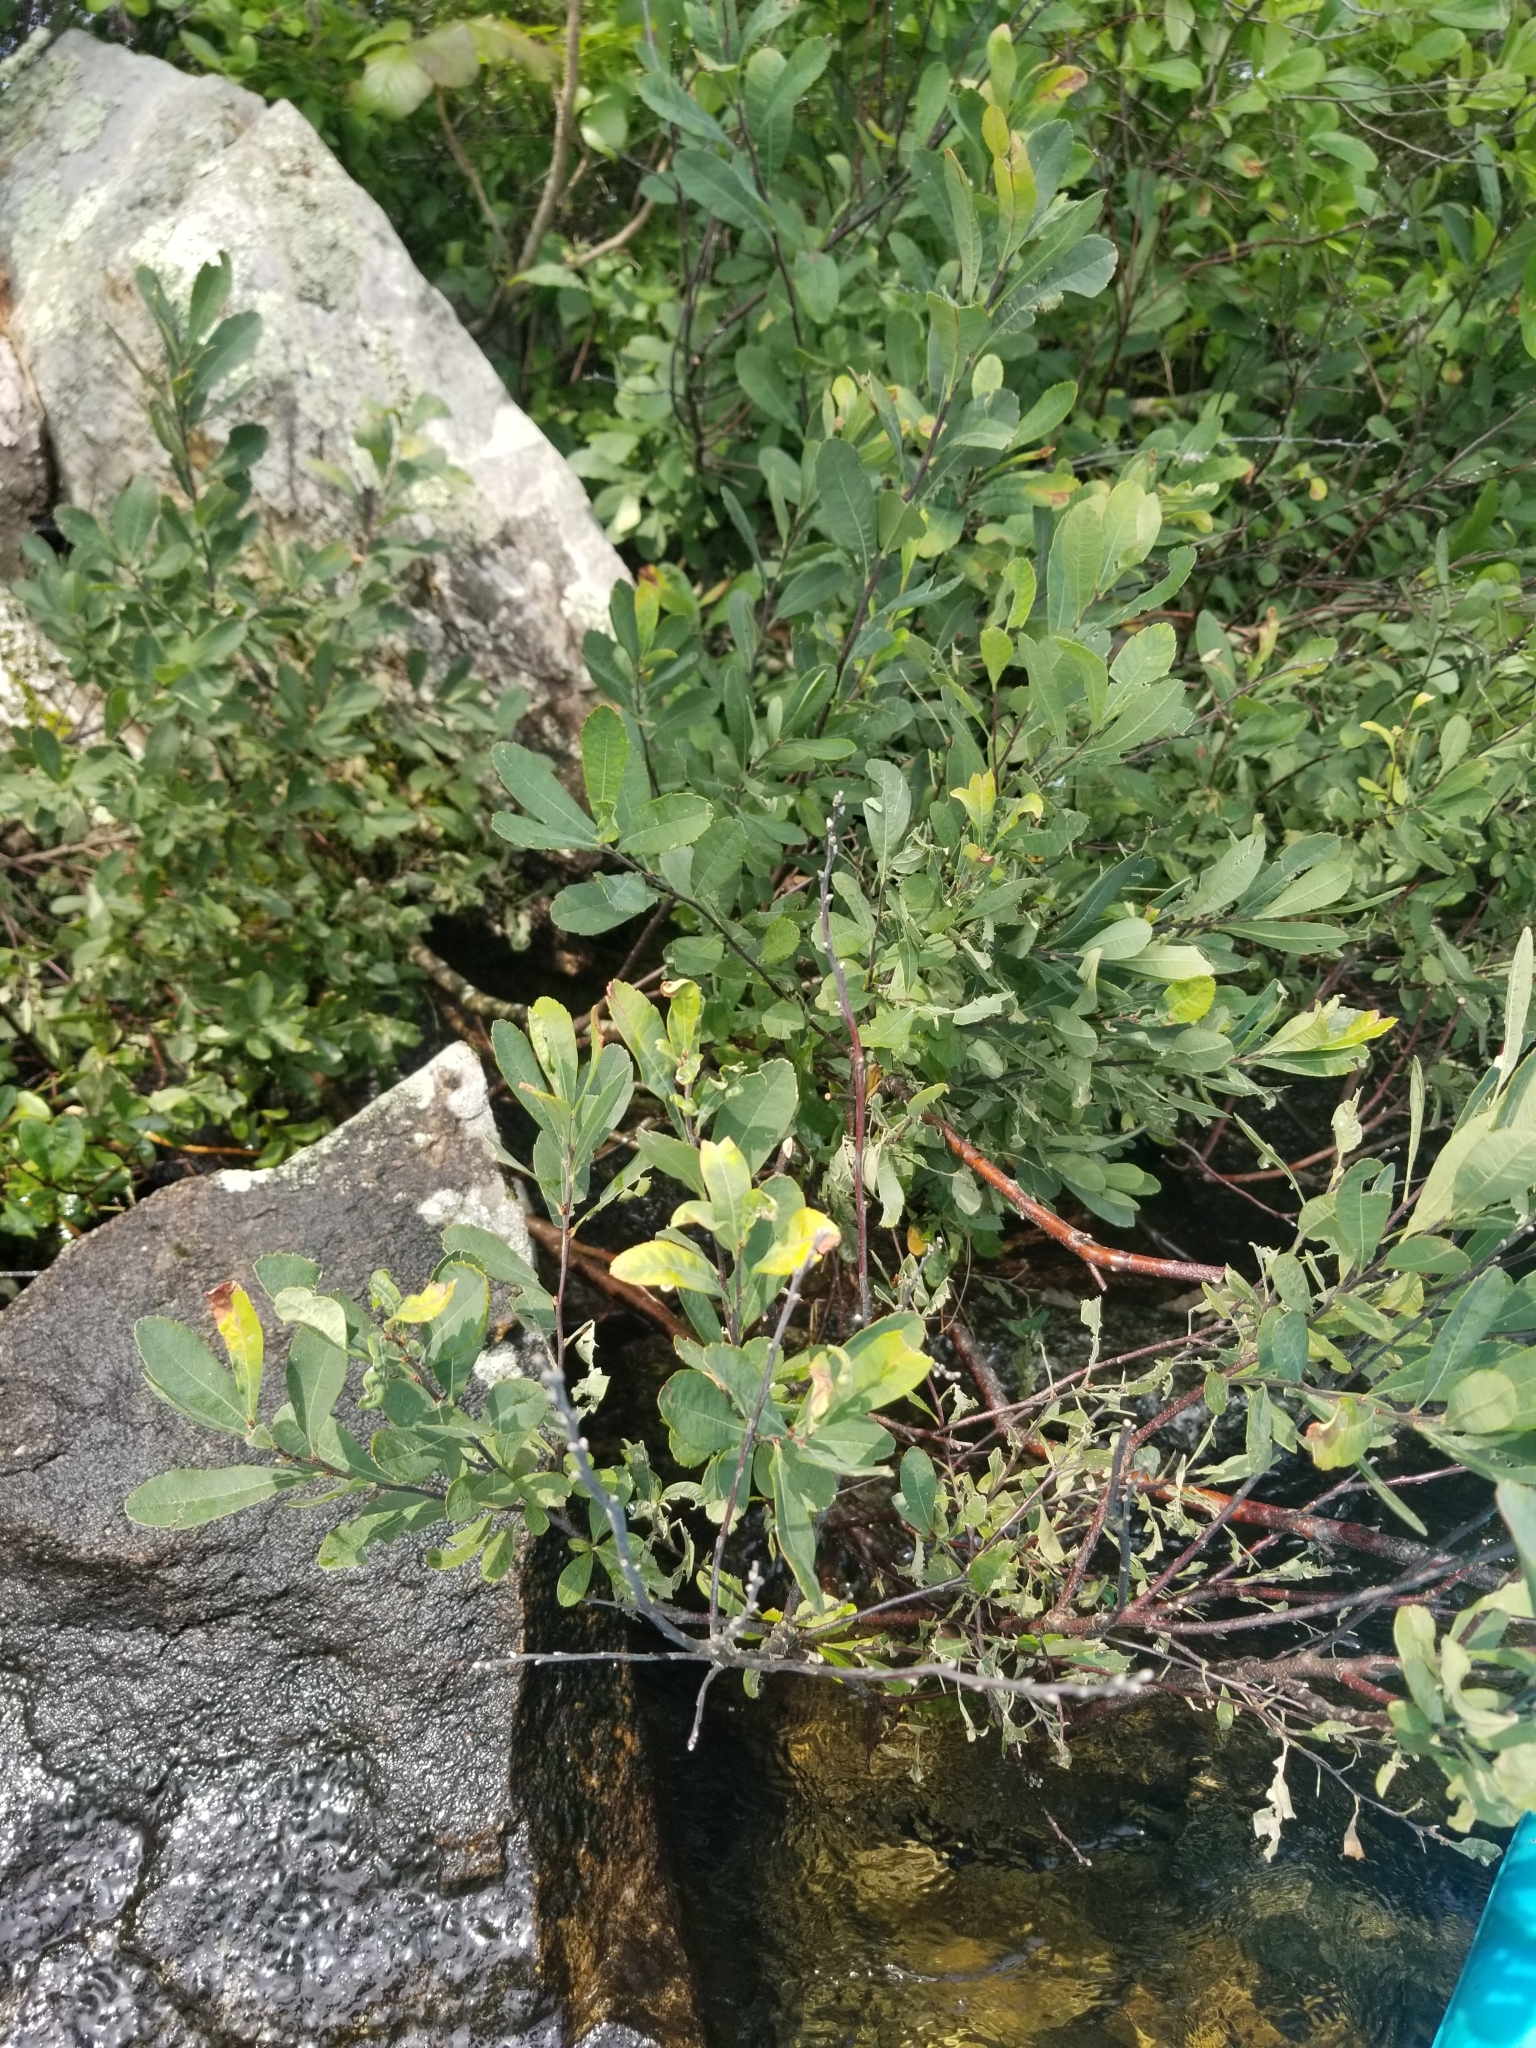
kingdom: Plantae
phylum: Tracheophyta
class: Magnoliopsida
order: Fagales
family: Myricaceae
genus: Myrica
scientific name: Myrica gale
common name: Sweet gale
